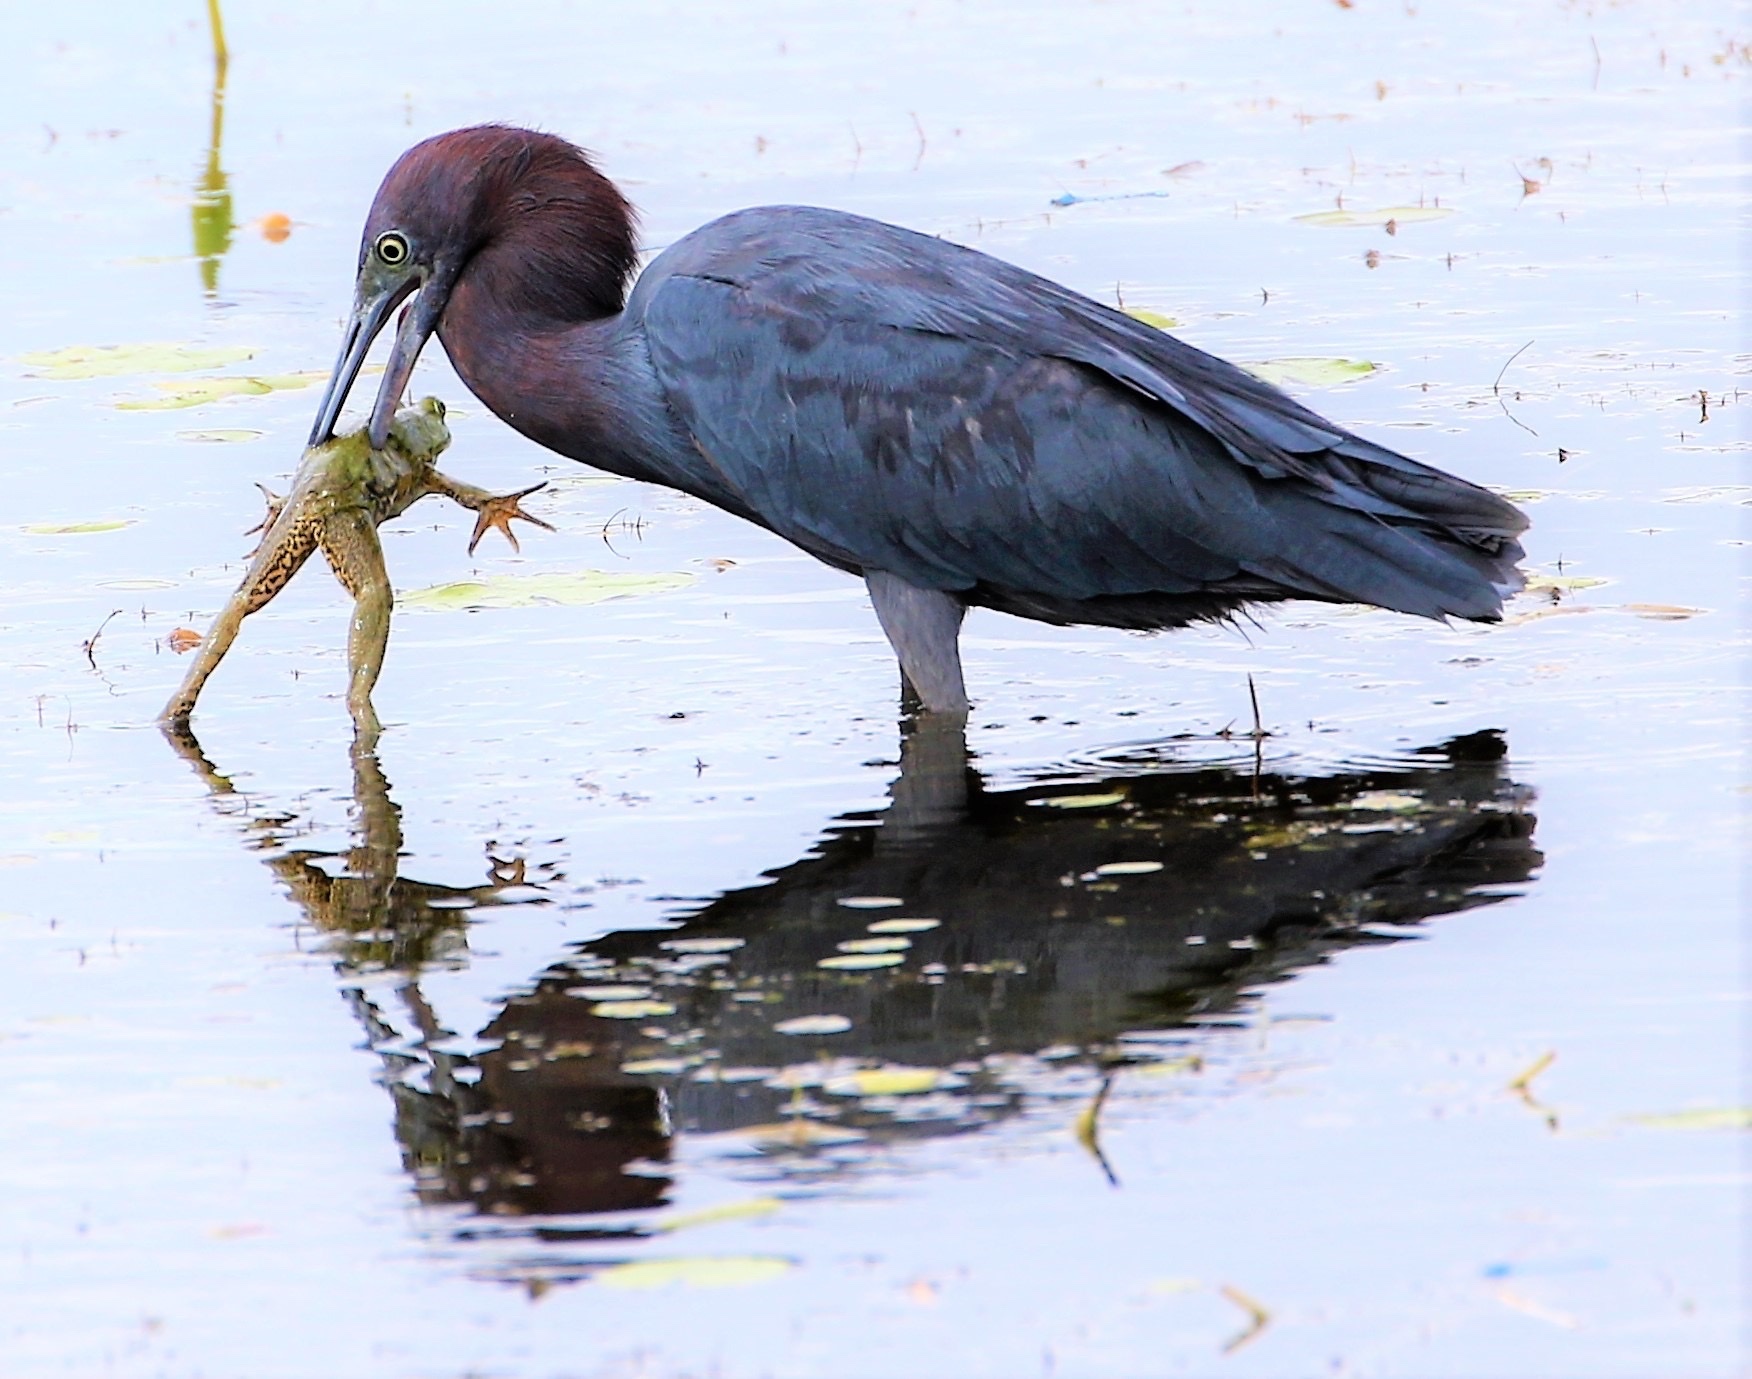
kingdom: Animalia
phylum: Chordata
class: Aves
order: Pelecaniformes
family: Ardeidae
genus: Egretta
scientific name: Egretta caerulea
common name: Little blue heron
